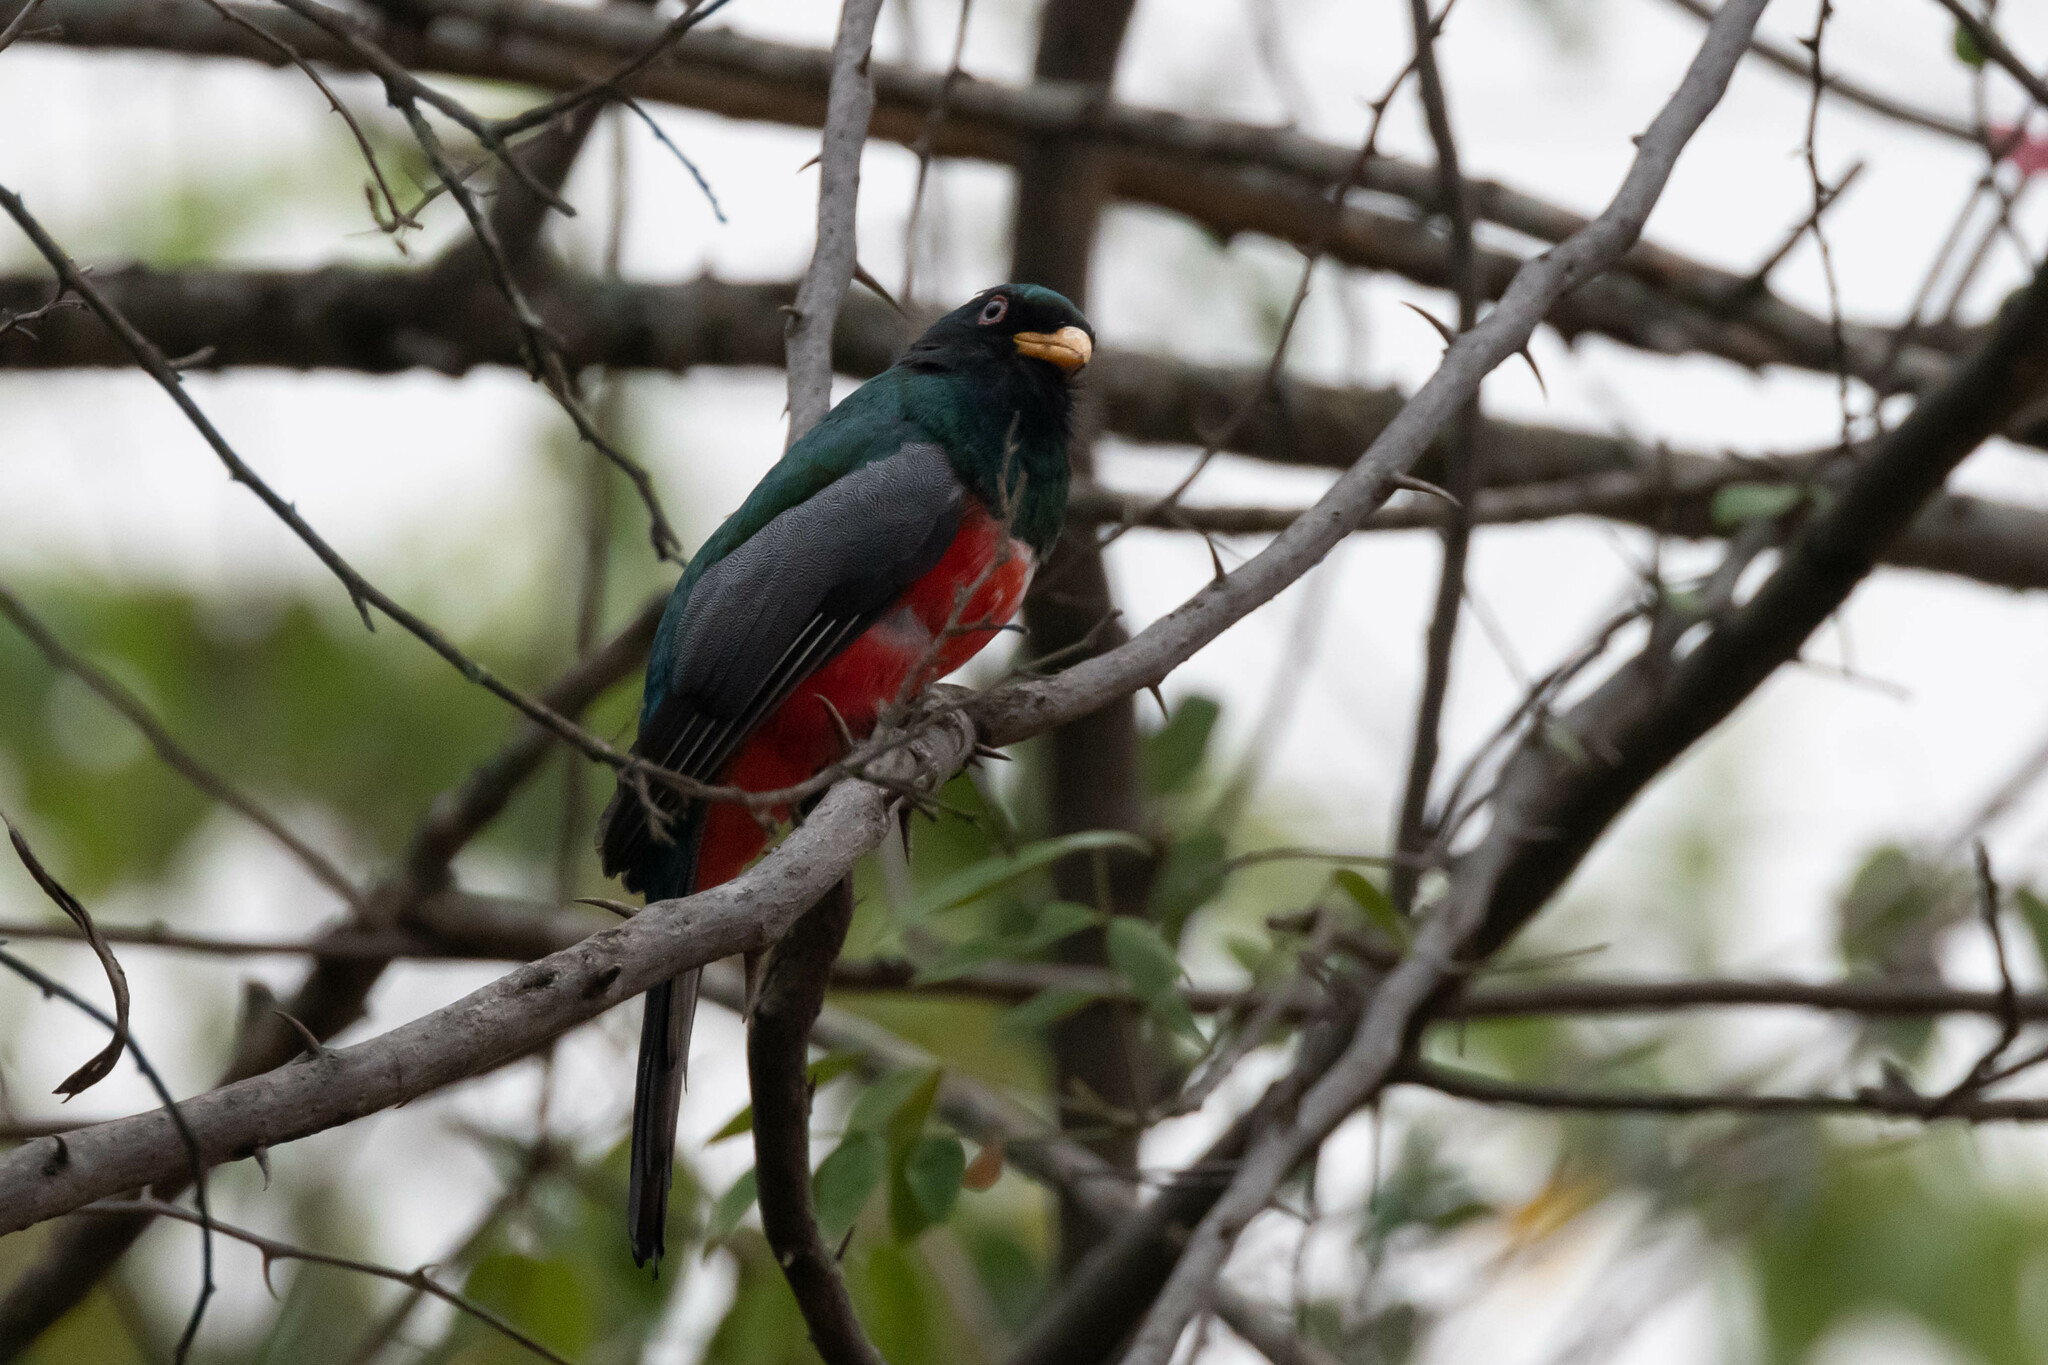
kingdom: Animalia
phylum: Chordata
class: Aves
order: Trogoniformes
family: Trogonidae
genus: Trogon
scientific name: Trogon mesurus
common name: Ecuadorian trogon
